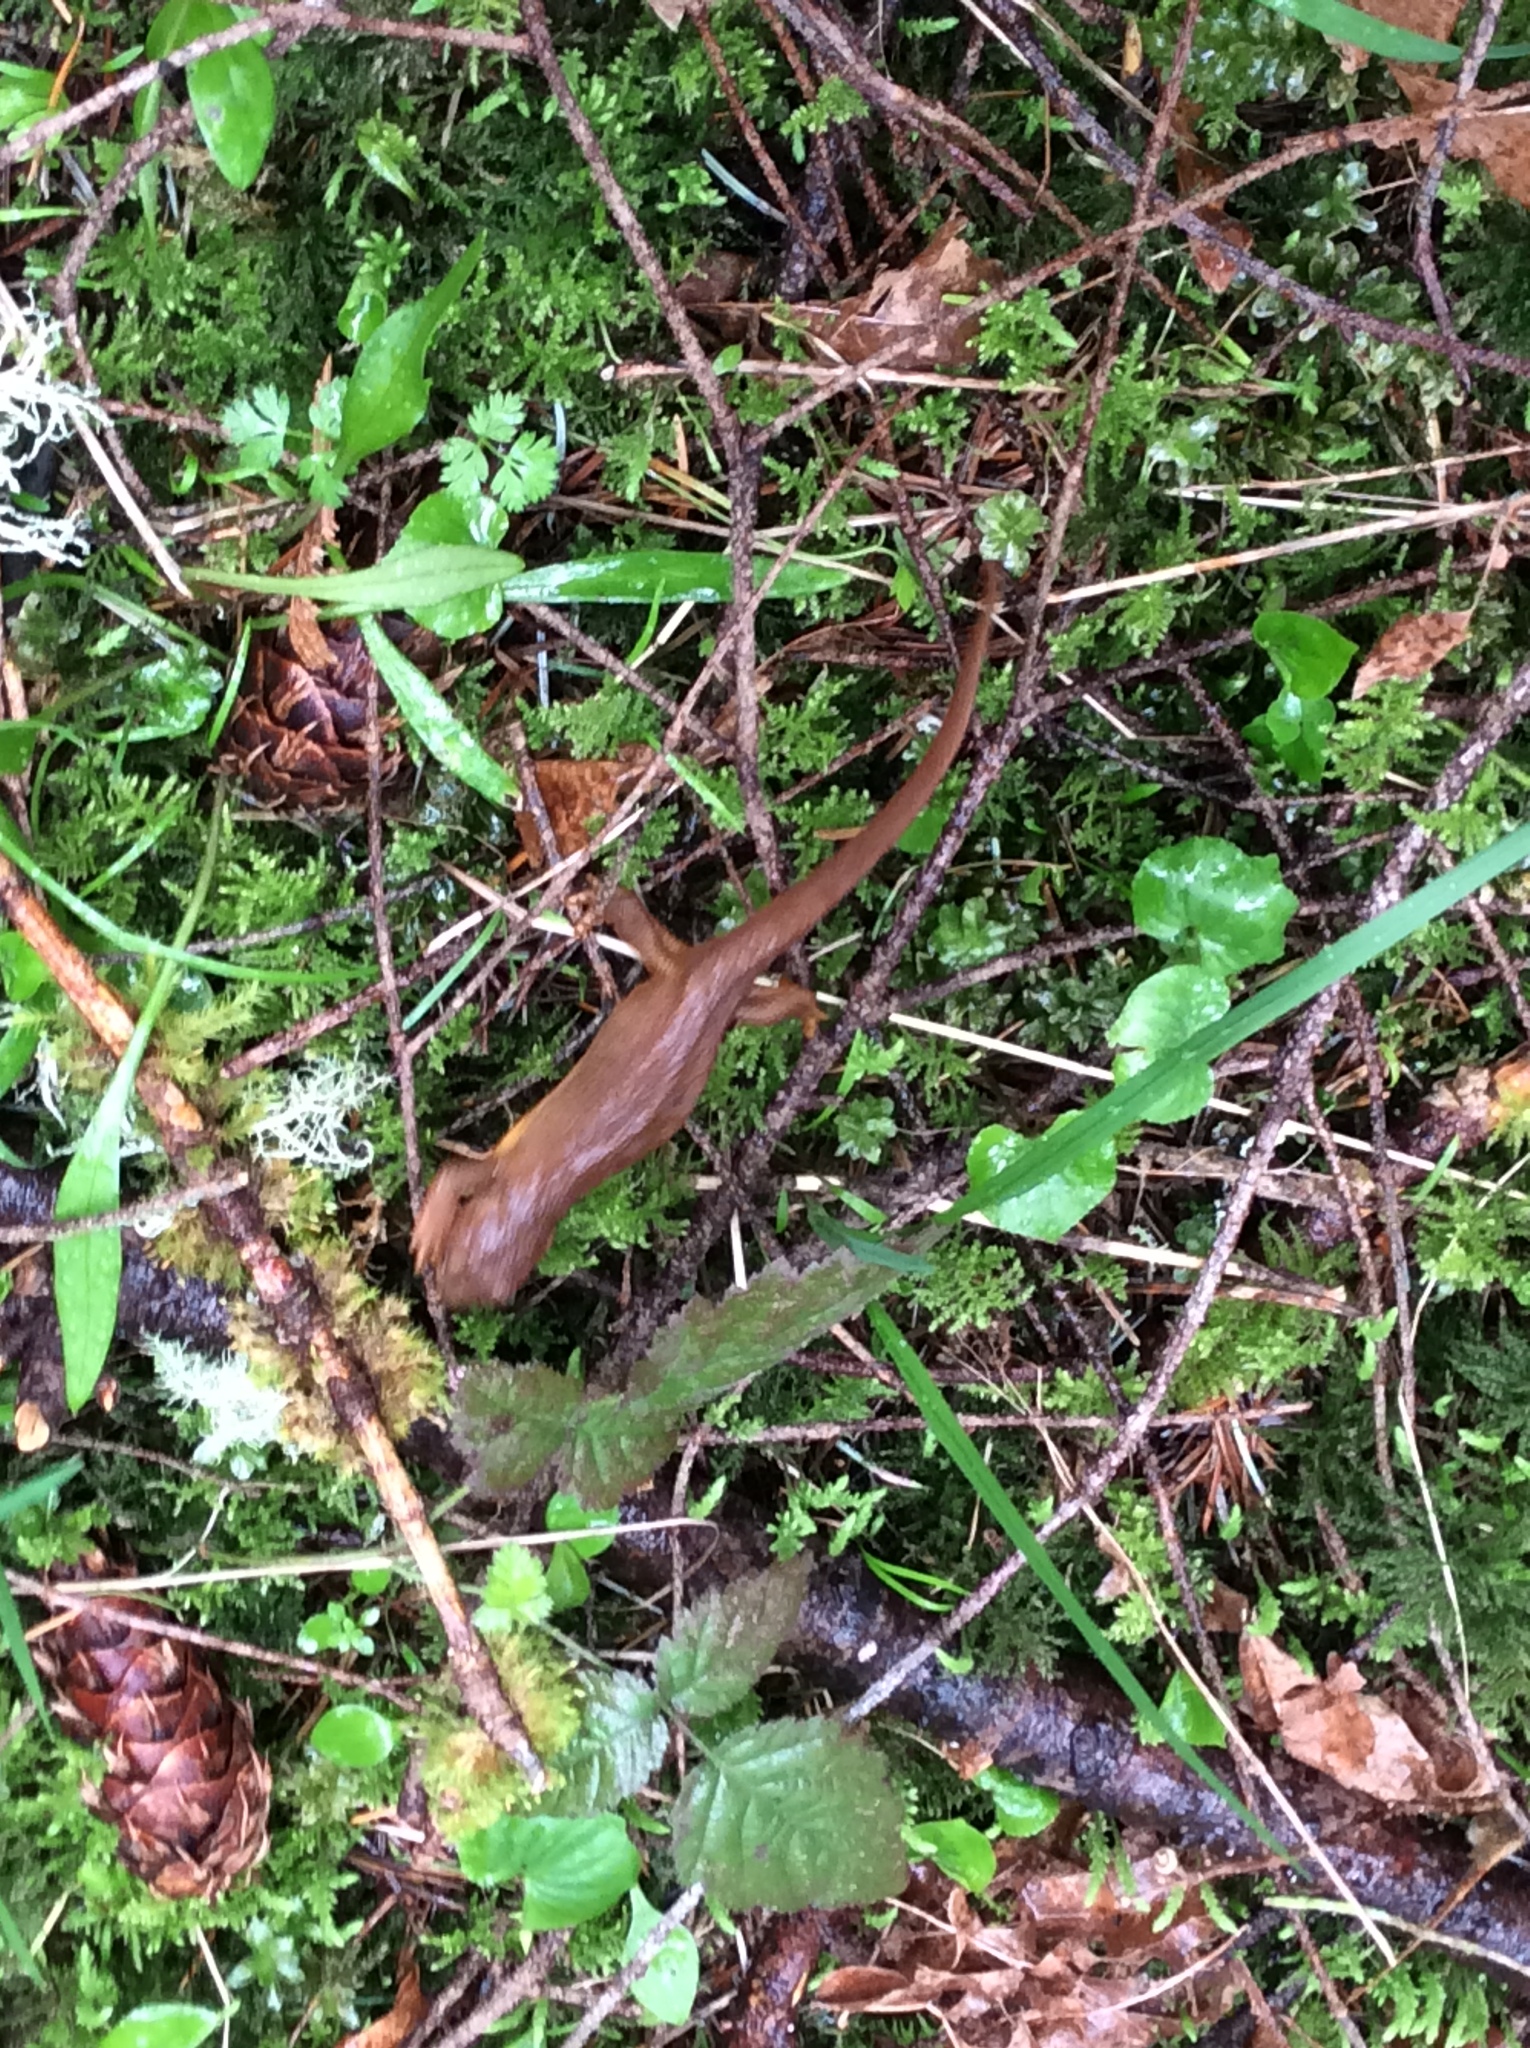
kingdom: Animalia
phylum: Chordata
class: Amphibia
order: Caudata
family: Salamandridae
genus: Taricha
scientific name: Taricha granulosa
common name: Roughskin newt
